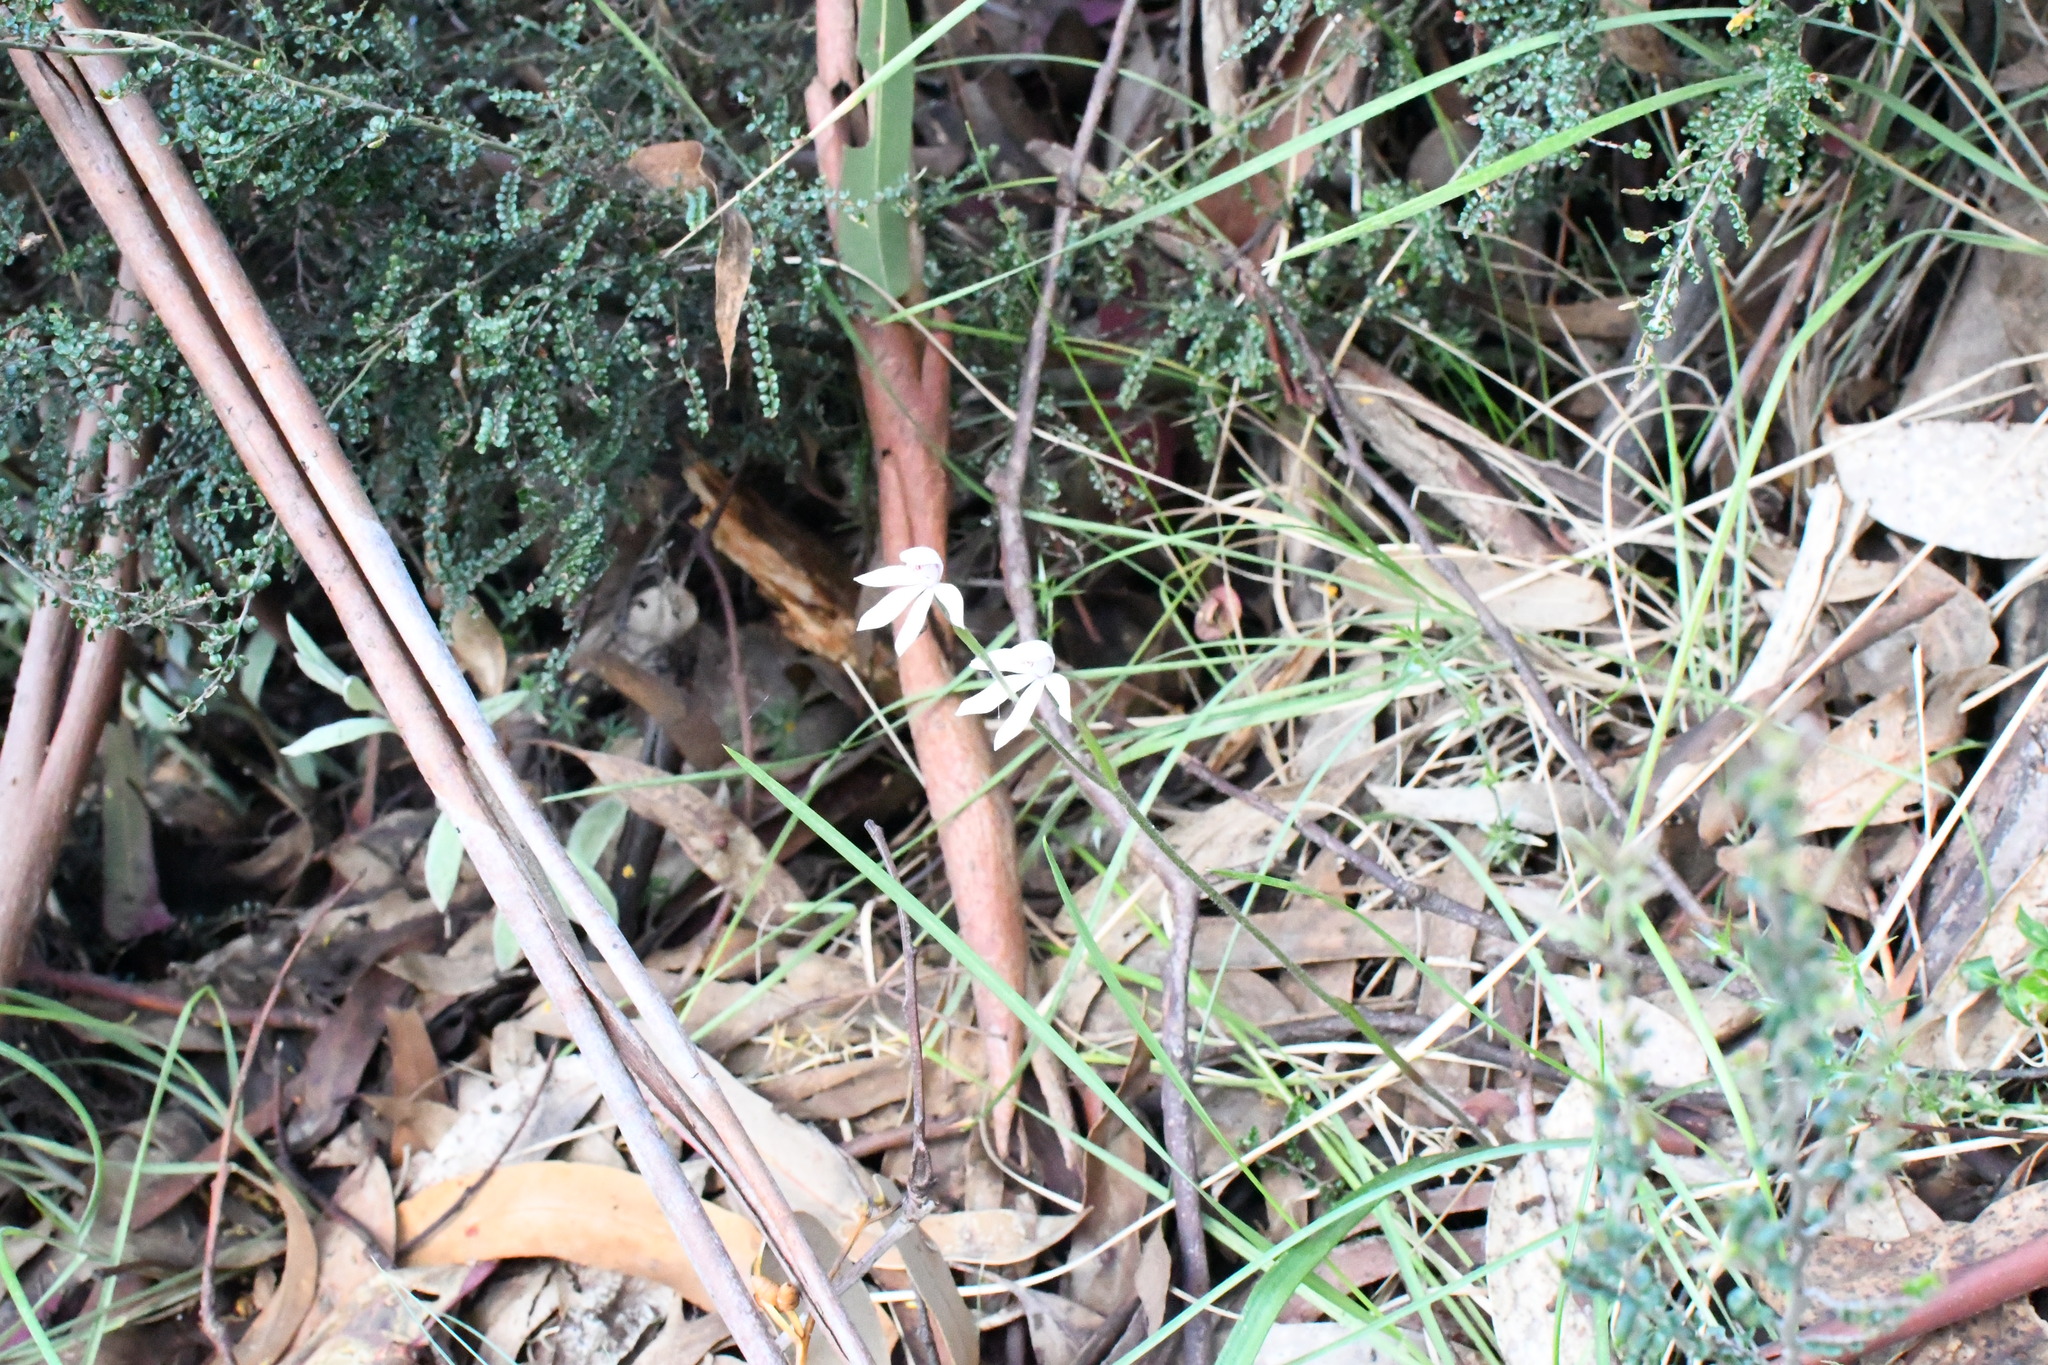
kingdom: Plantae
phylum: Tracheophyta
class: Liliopsida
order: Asparagales
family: Orchidaceae
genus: Caladenia
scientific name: Caladenia alpina
